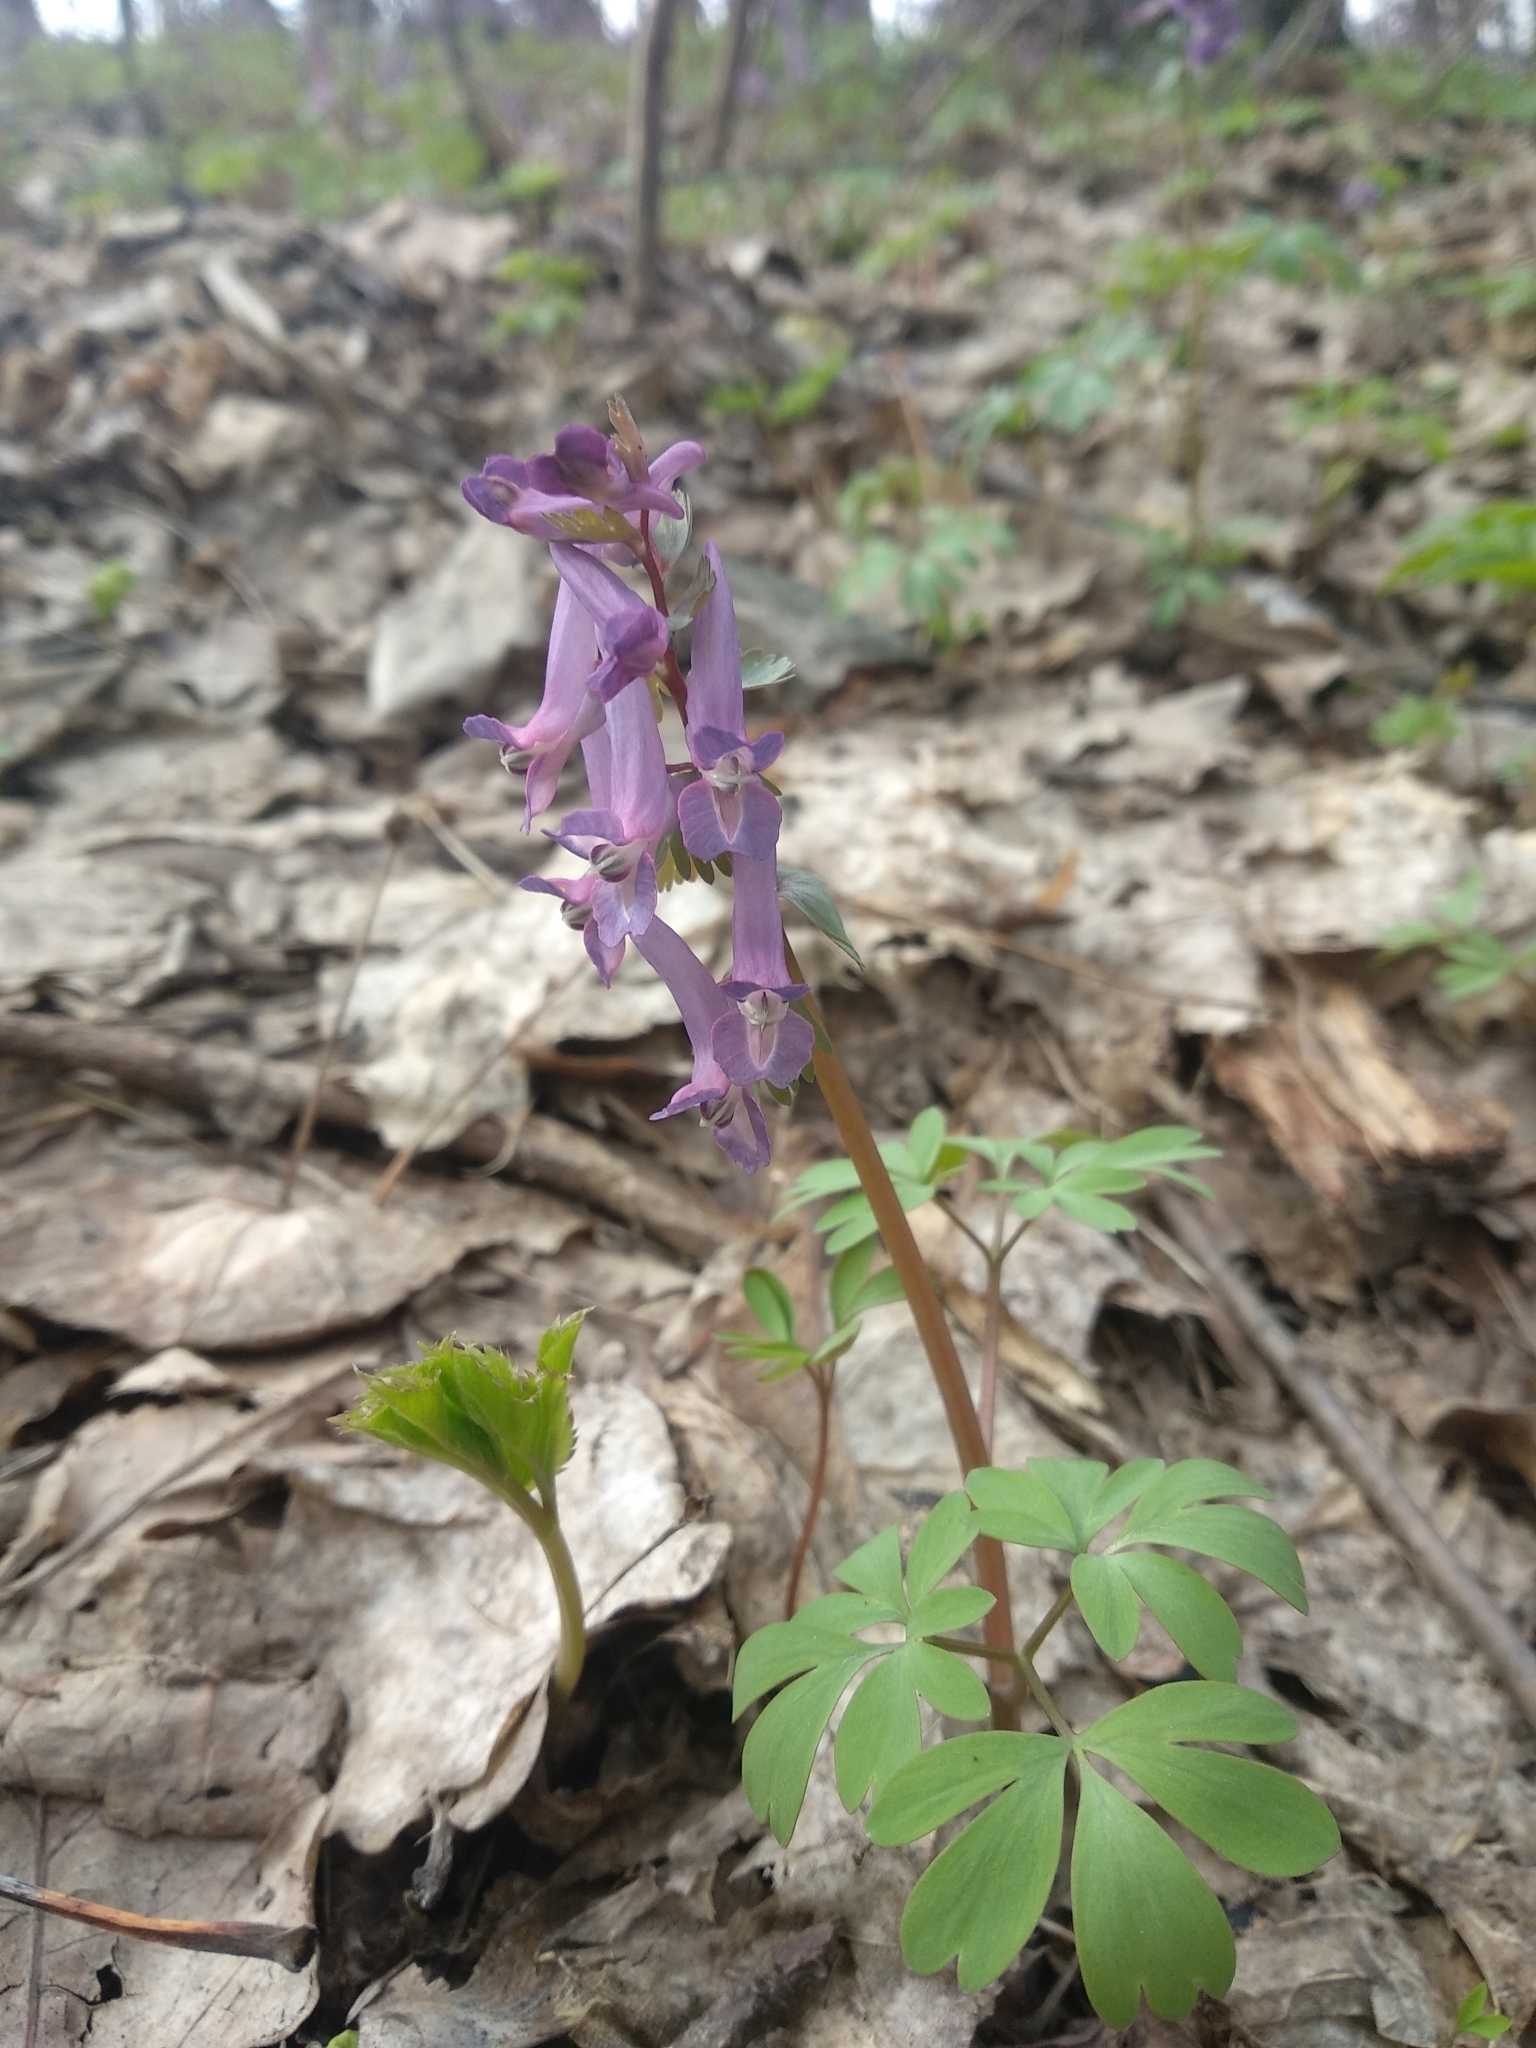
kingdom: Plantae
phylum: Tracheophyta
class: Magnoliopsida
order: Ranunculales
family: Papaveraceae
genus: Corydalis
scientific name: Corydalis solida
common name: Bird-in-a-bush
